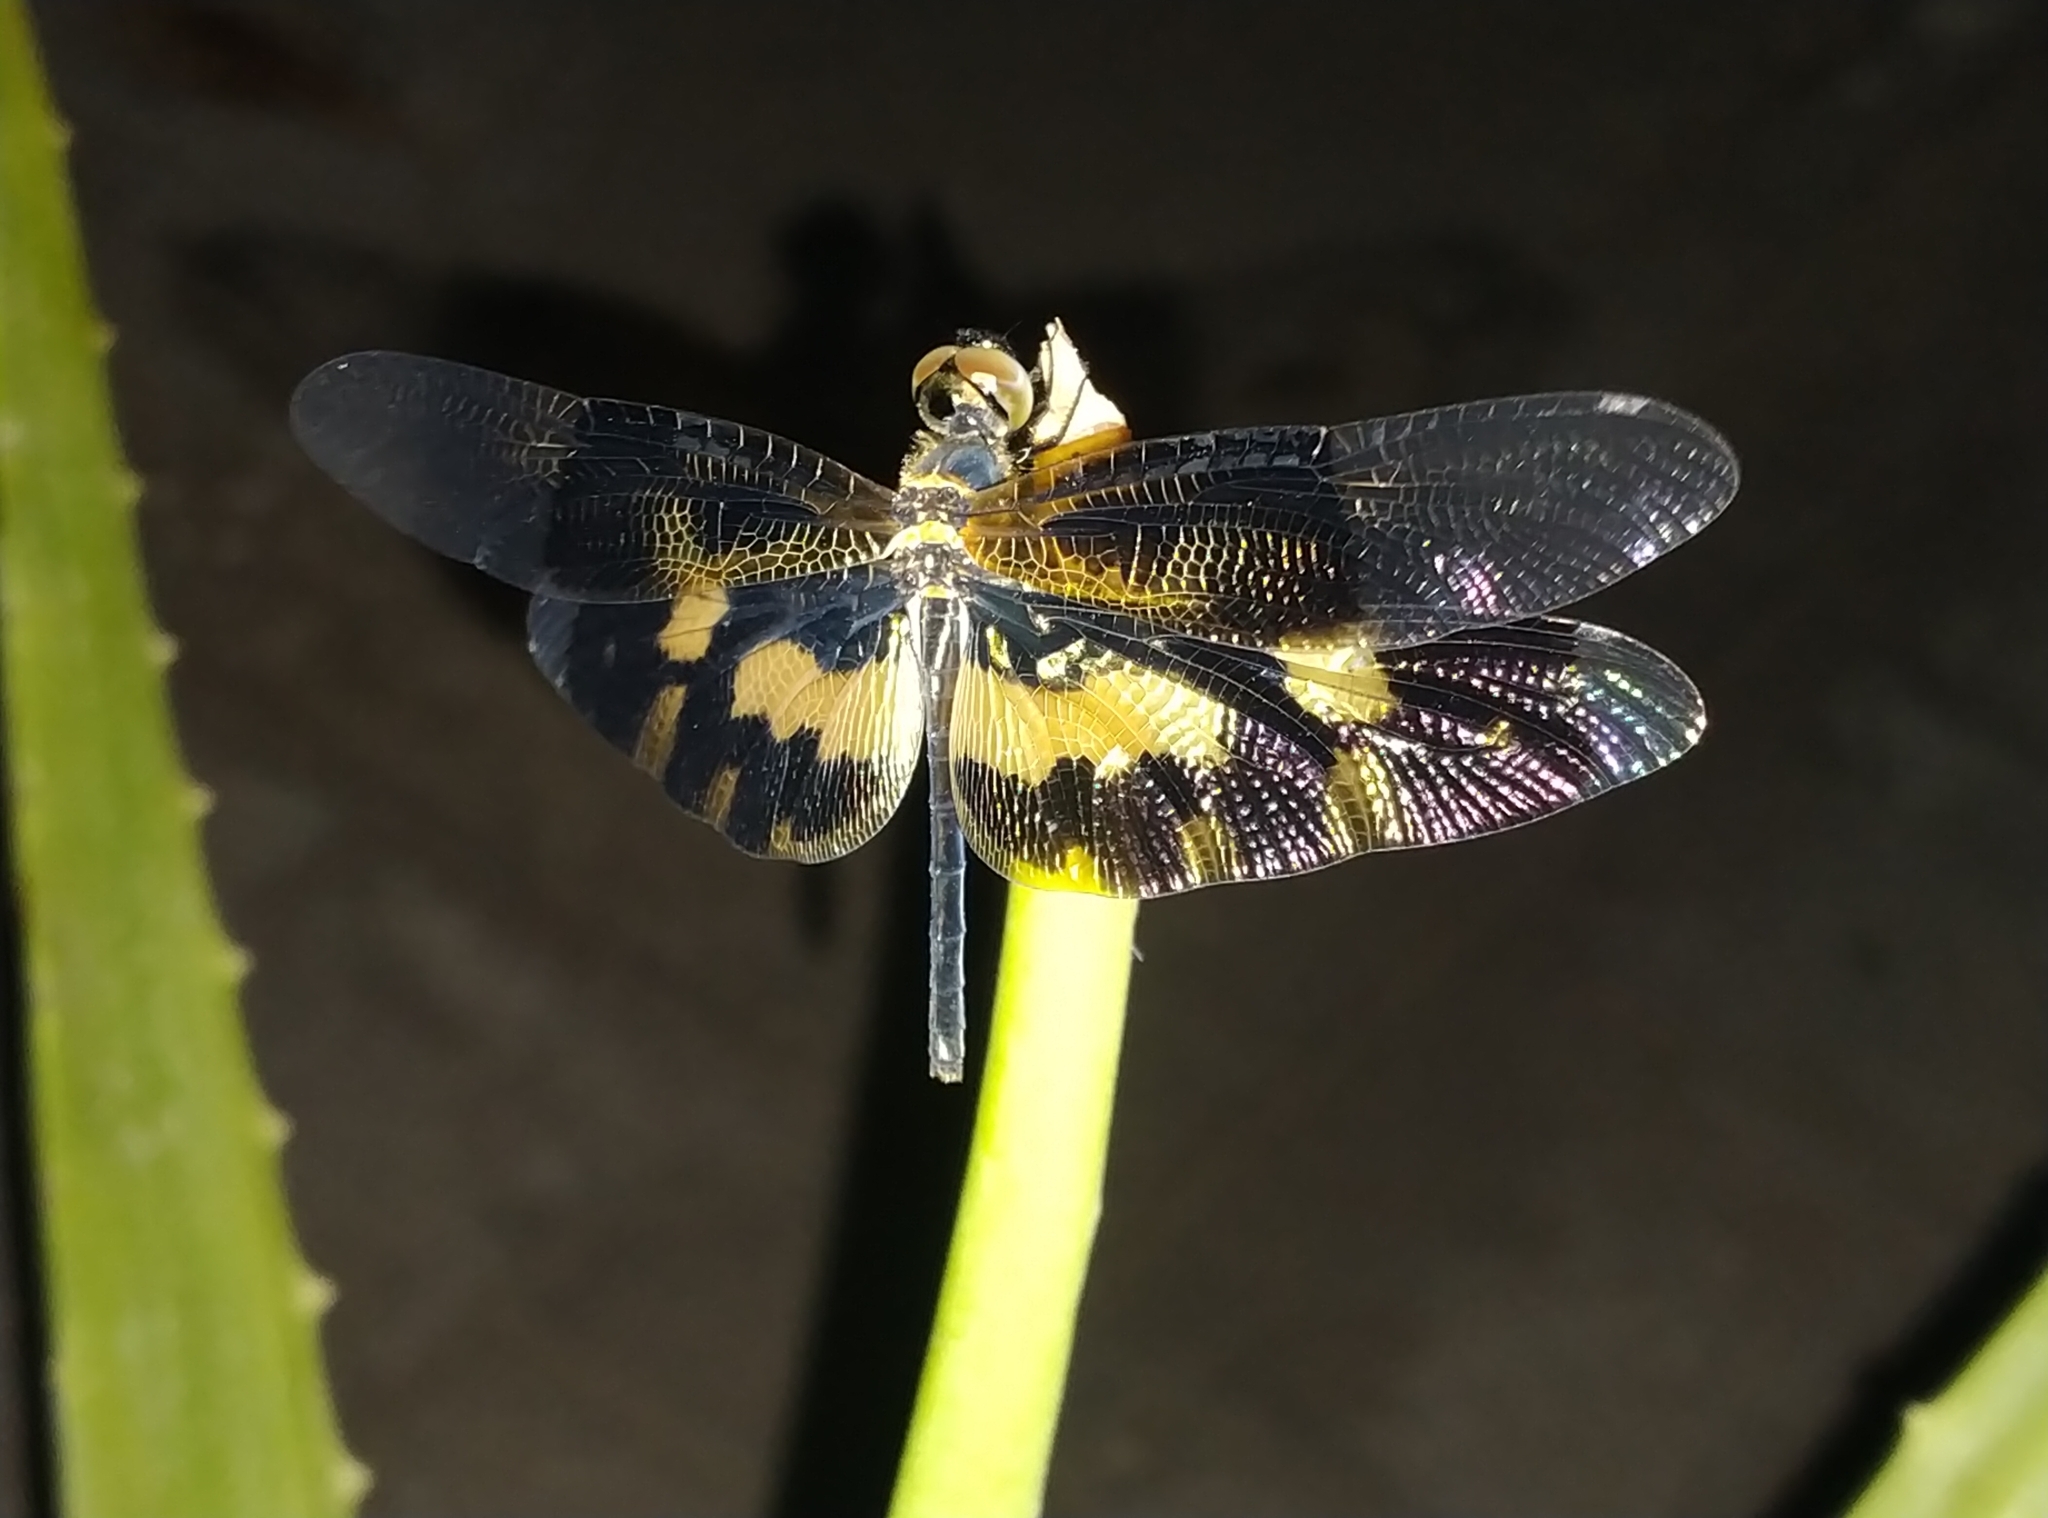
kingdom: Animalia
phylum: Arthropoda
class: Insecta
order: Odonata
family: Libellulidae
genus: Rhyothemis
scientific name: Rhyothemis variegata
